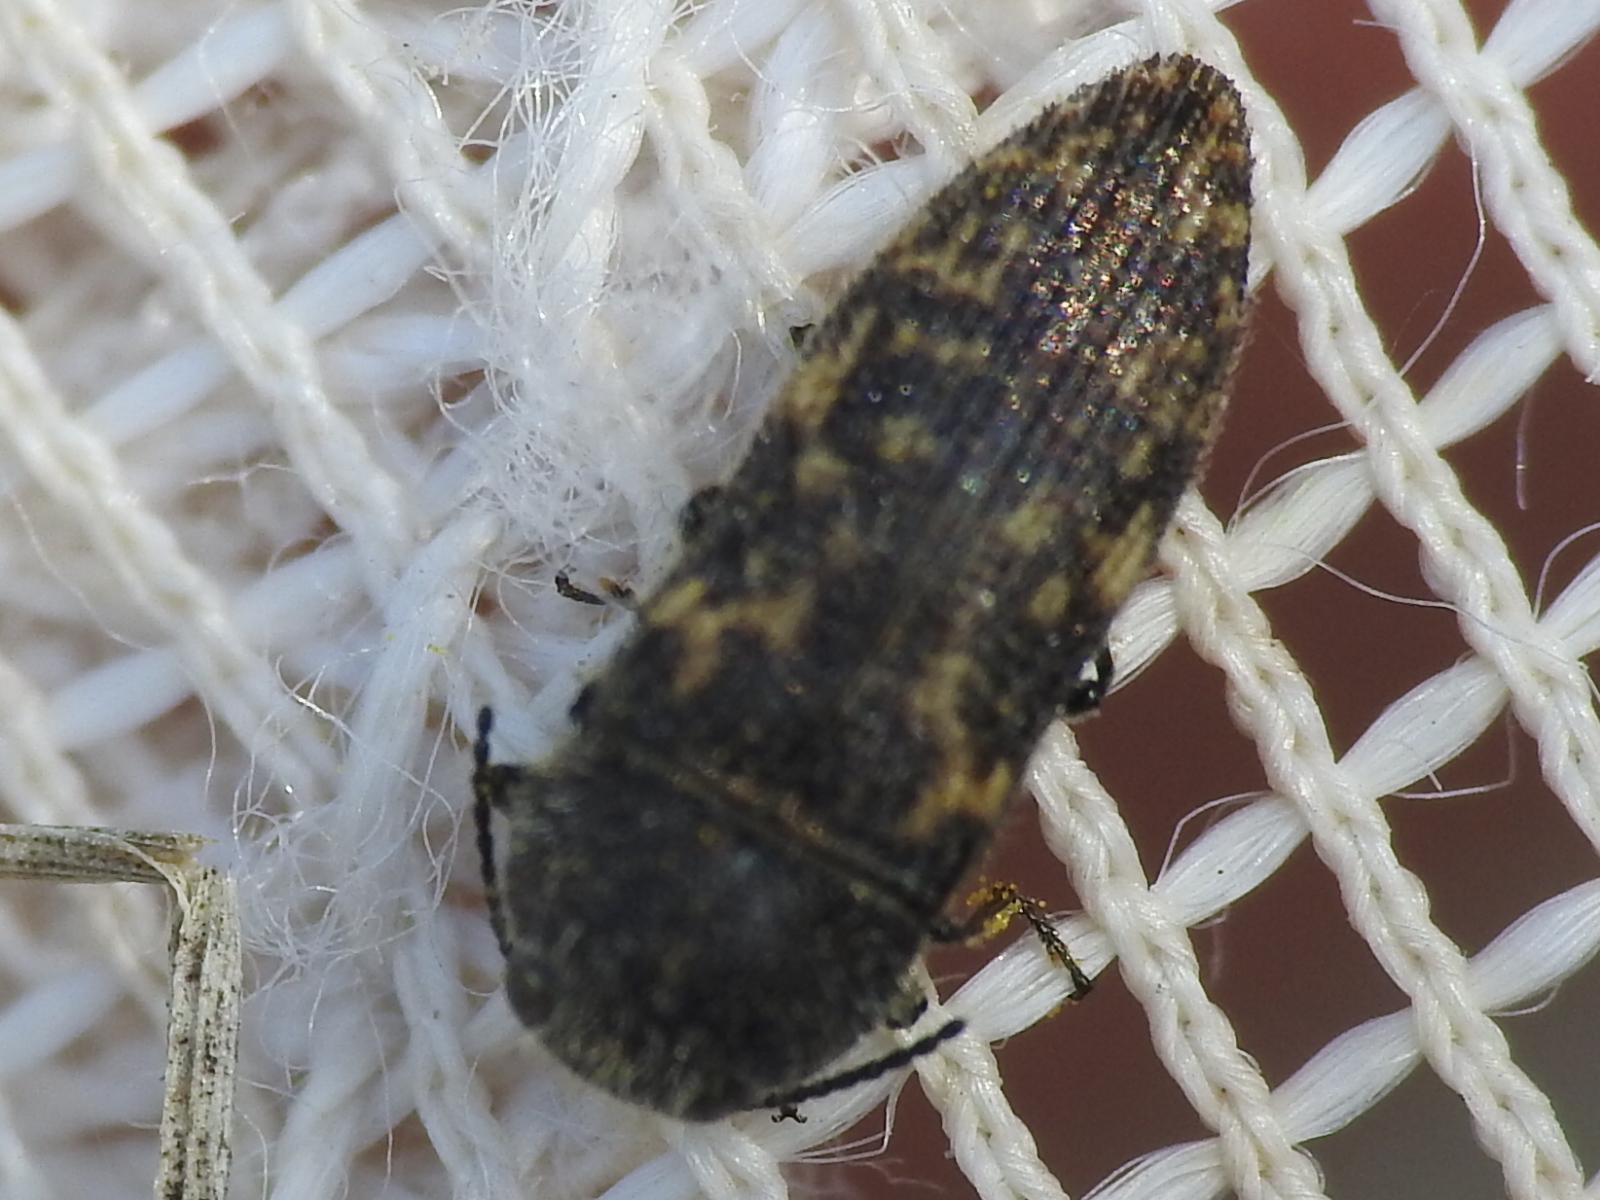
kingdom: Animalia
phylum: Arthropoda
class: Insecta
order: Coleoptera
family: Buprestidae
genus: Acmaeodera
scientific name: Acmaeodera neglecta
